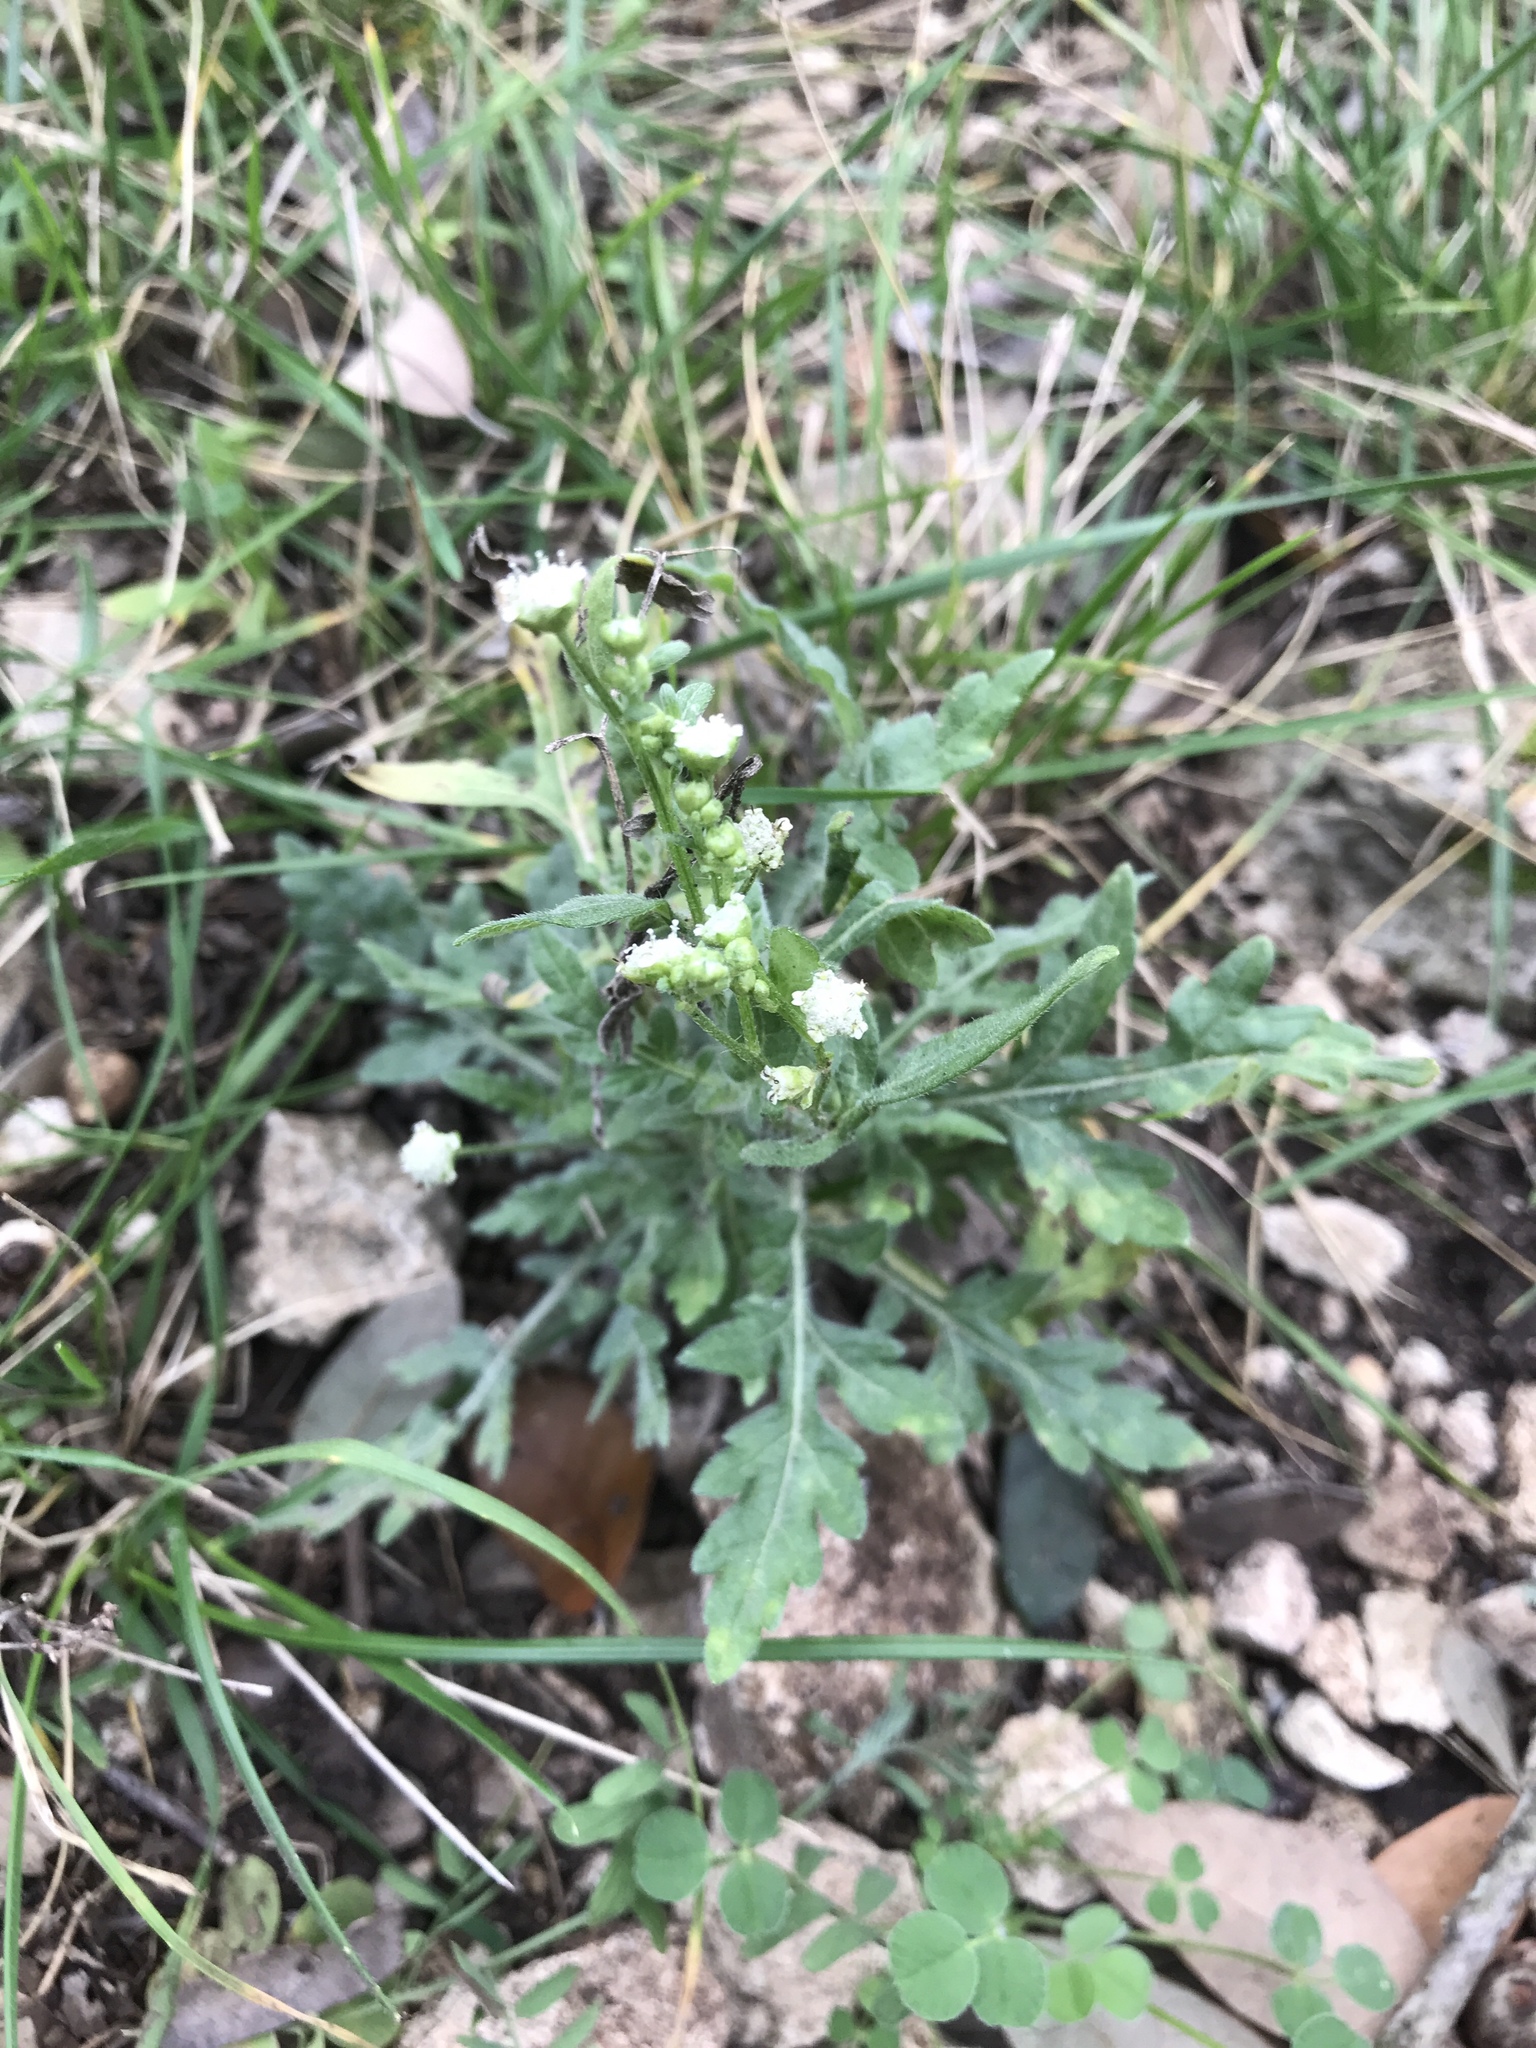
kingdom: Plantae
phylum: Tracheophyta
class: Magnoliopsida
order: Asterales
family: Asteraceae
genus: Parthenium
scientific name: Parthenium hysterophorus
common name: Santa maria feverfew
